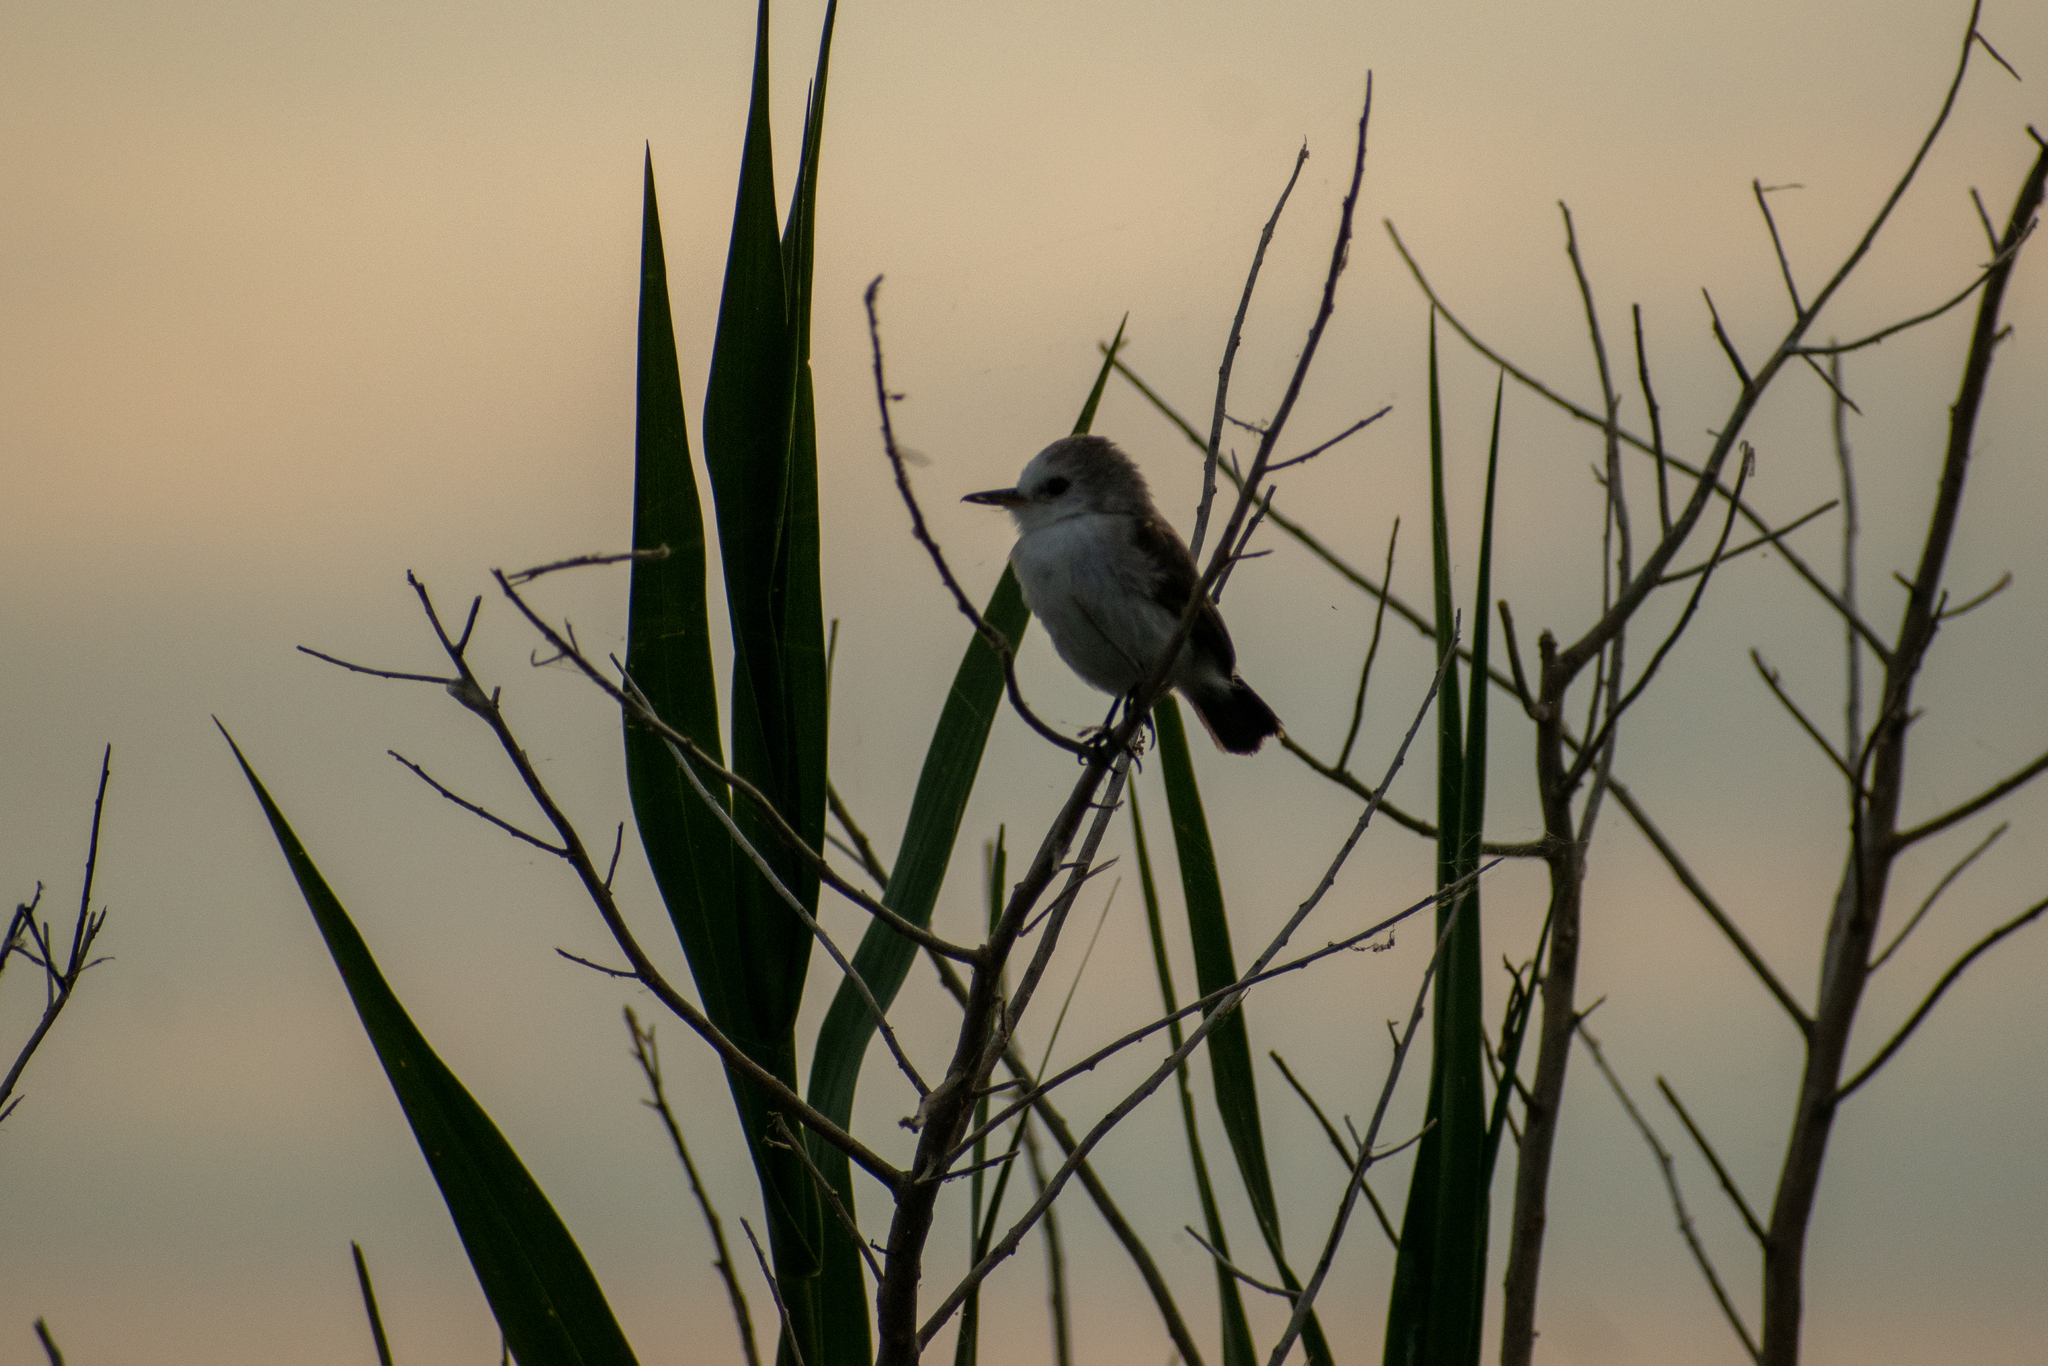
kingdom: Animalia
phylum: Chordata
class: Aves
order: Passeriformes
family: Tyrannidae
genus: Arundinicola
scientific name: Arundinicola leucocephala
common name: White-headed marsh tyrant
